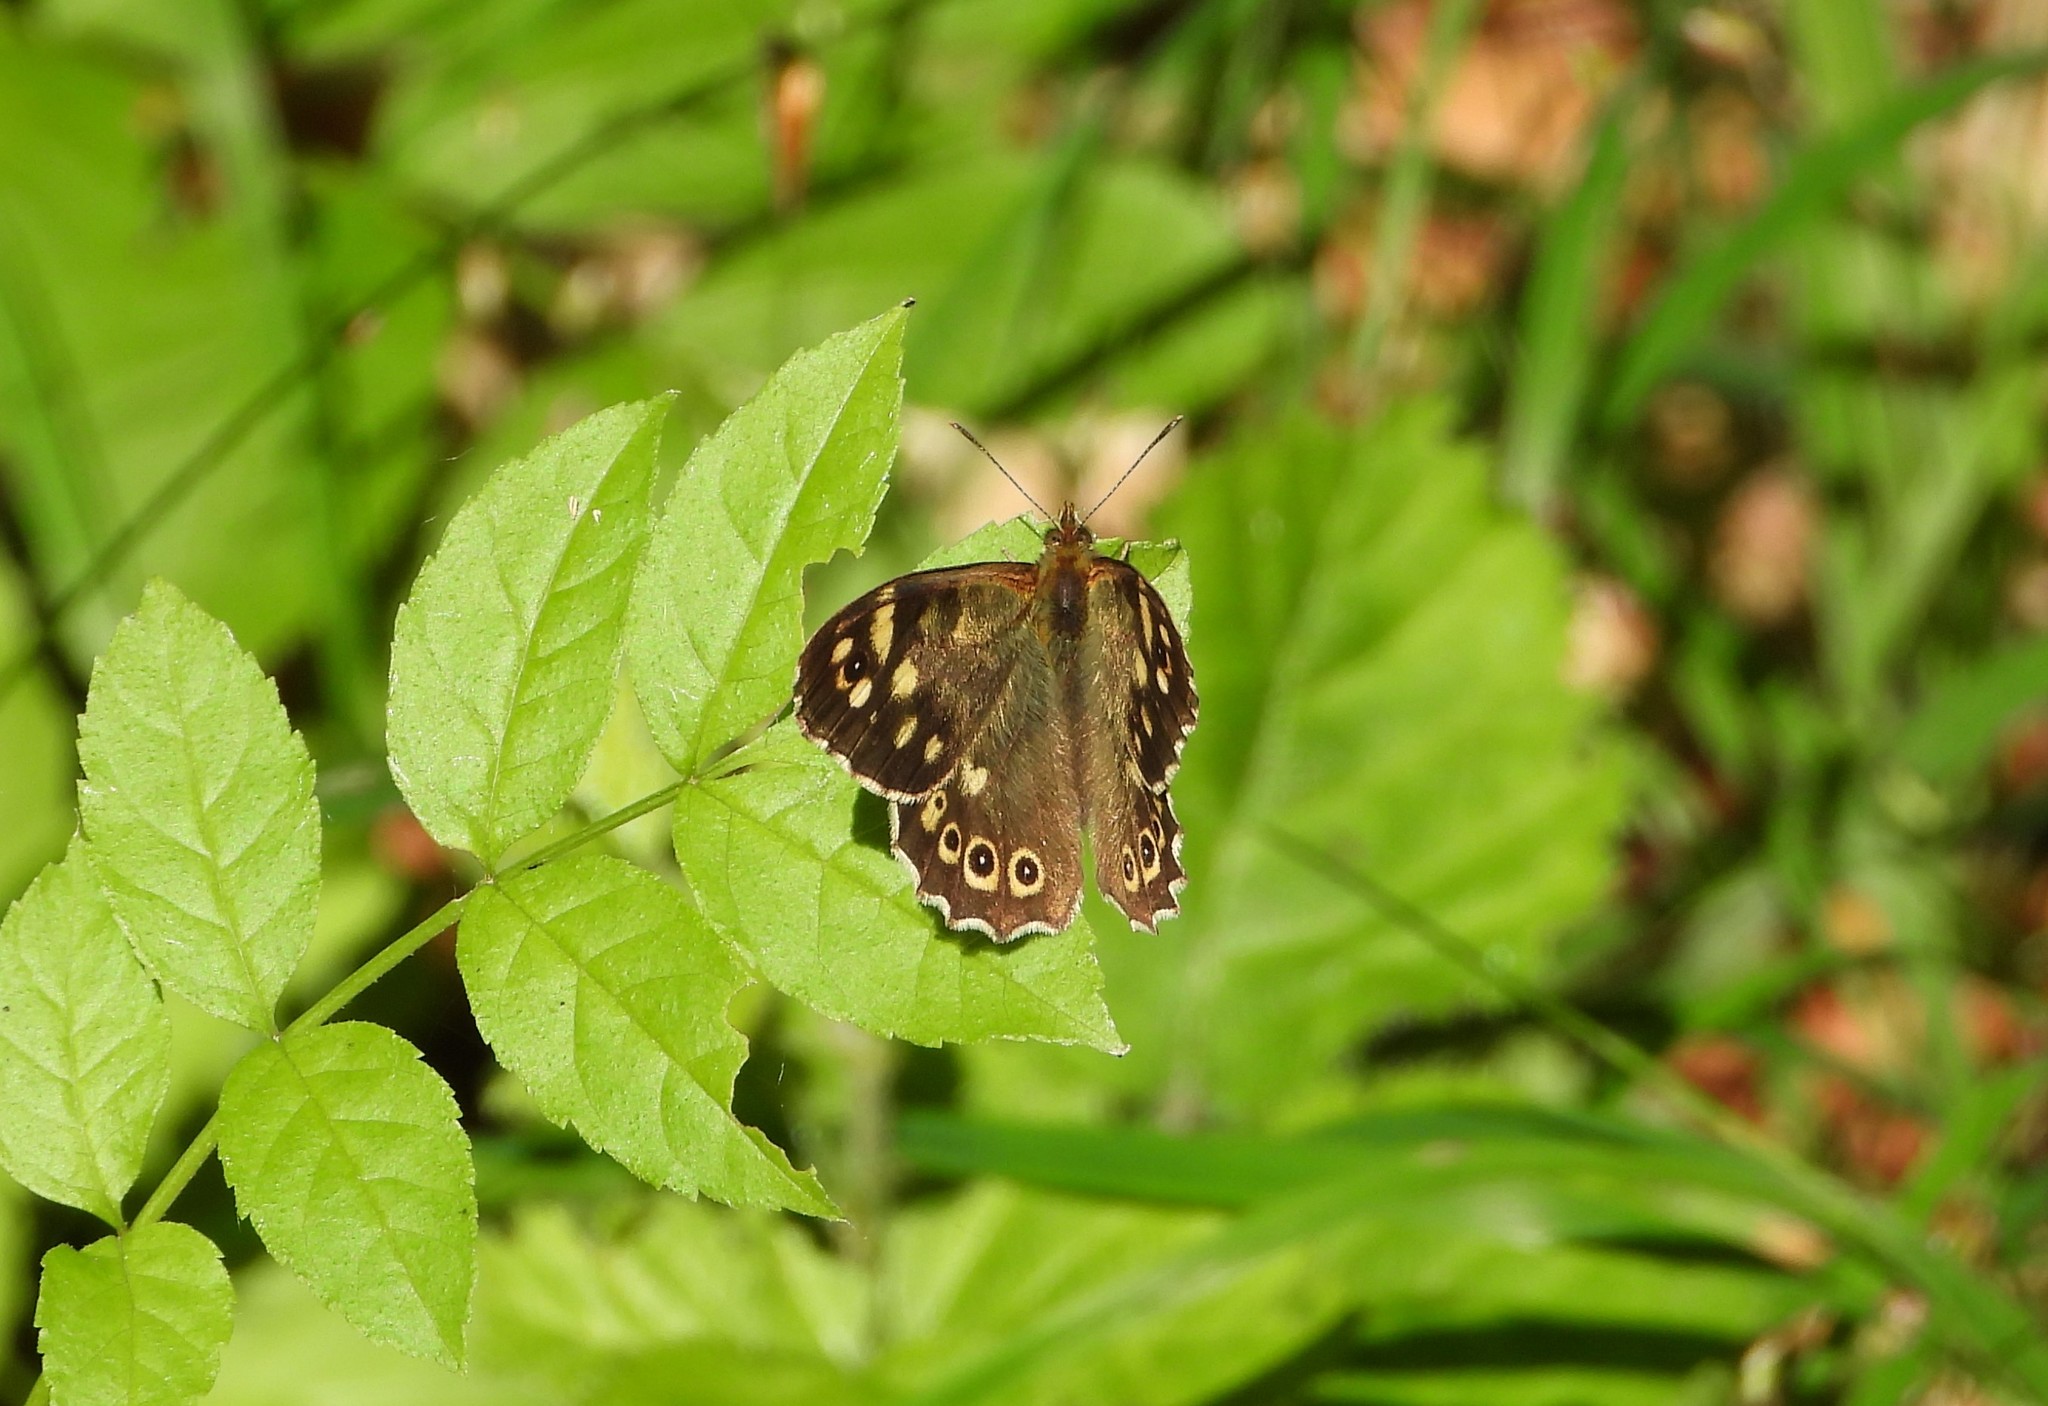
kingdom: Animalia
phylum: Arthropoda
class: Insecta
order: Lepidoptera
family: Nymphalidae
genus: Pararge
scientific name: Pararge aegeria
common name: Speckled wood
